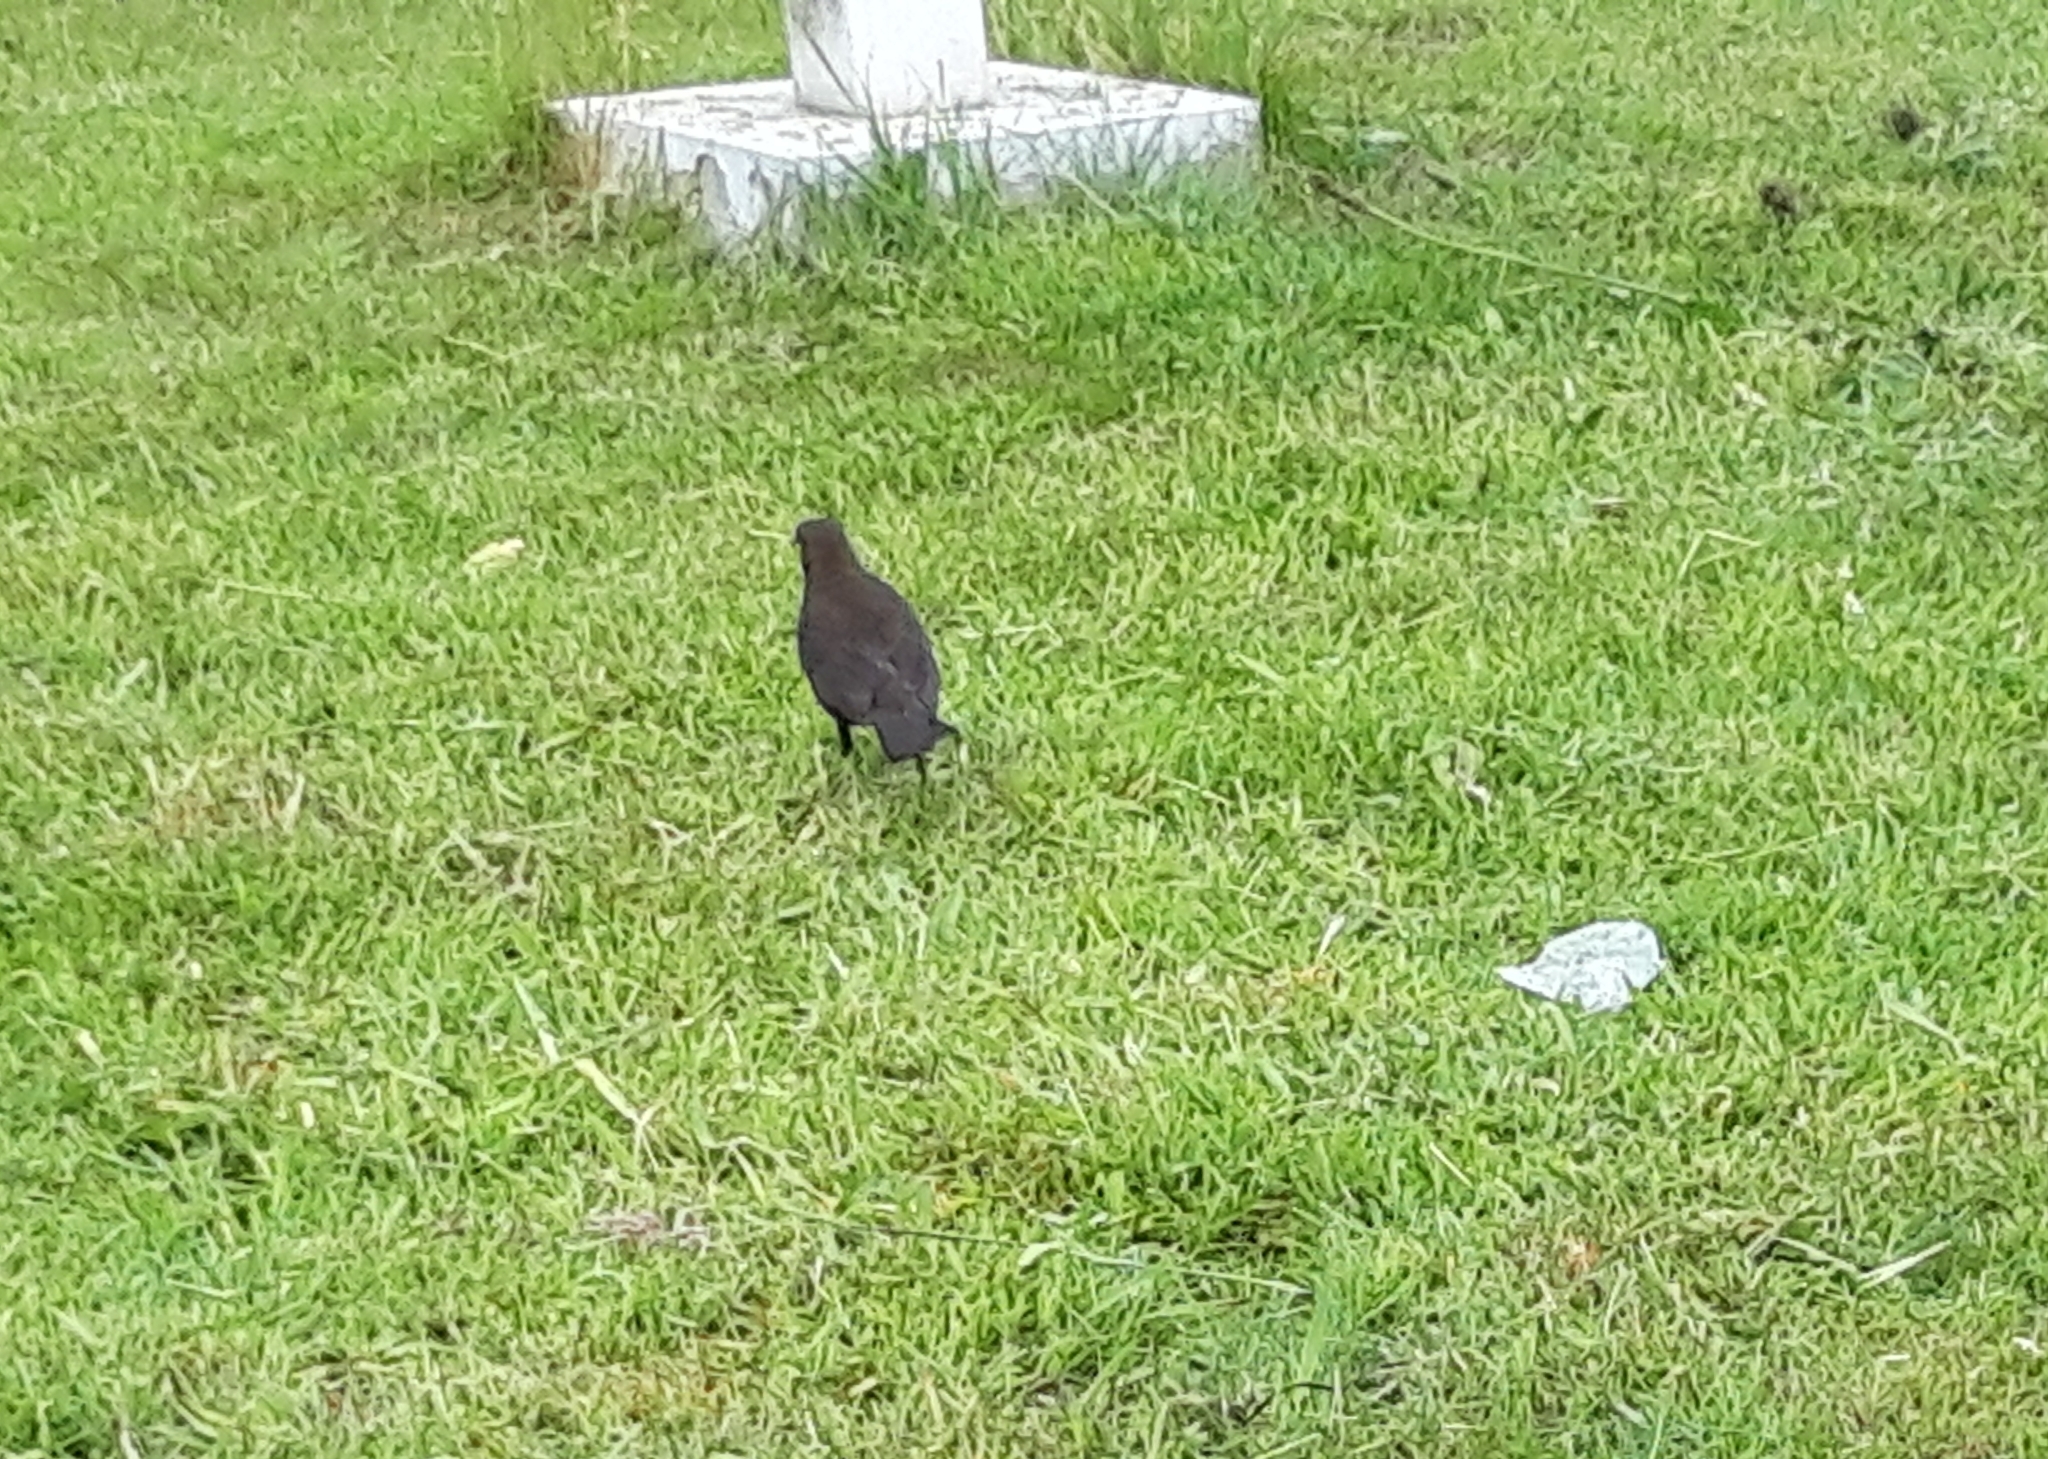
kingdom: Animalia
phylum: Chordata
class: Aves
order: Passeriformes
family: Turdidae
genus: Turdus
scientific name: Turdus merula
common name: Common blackbird
